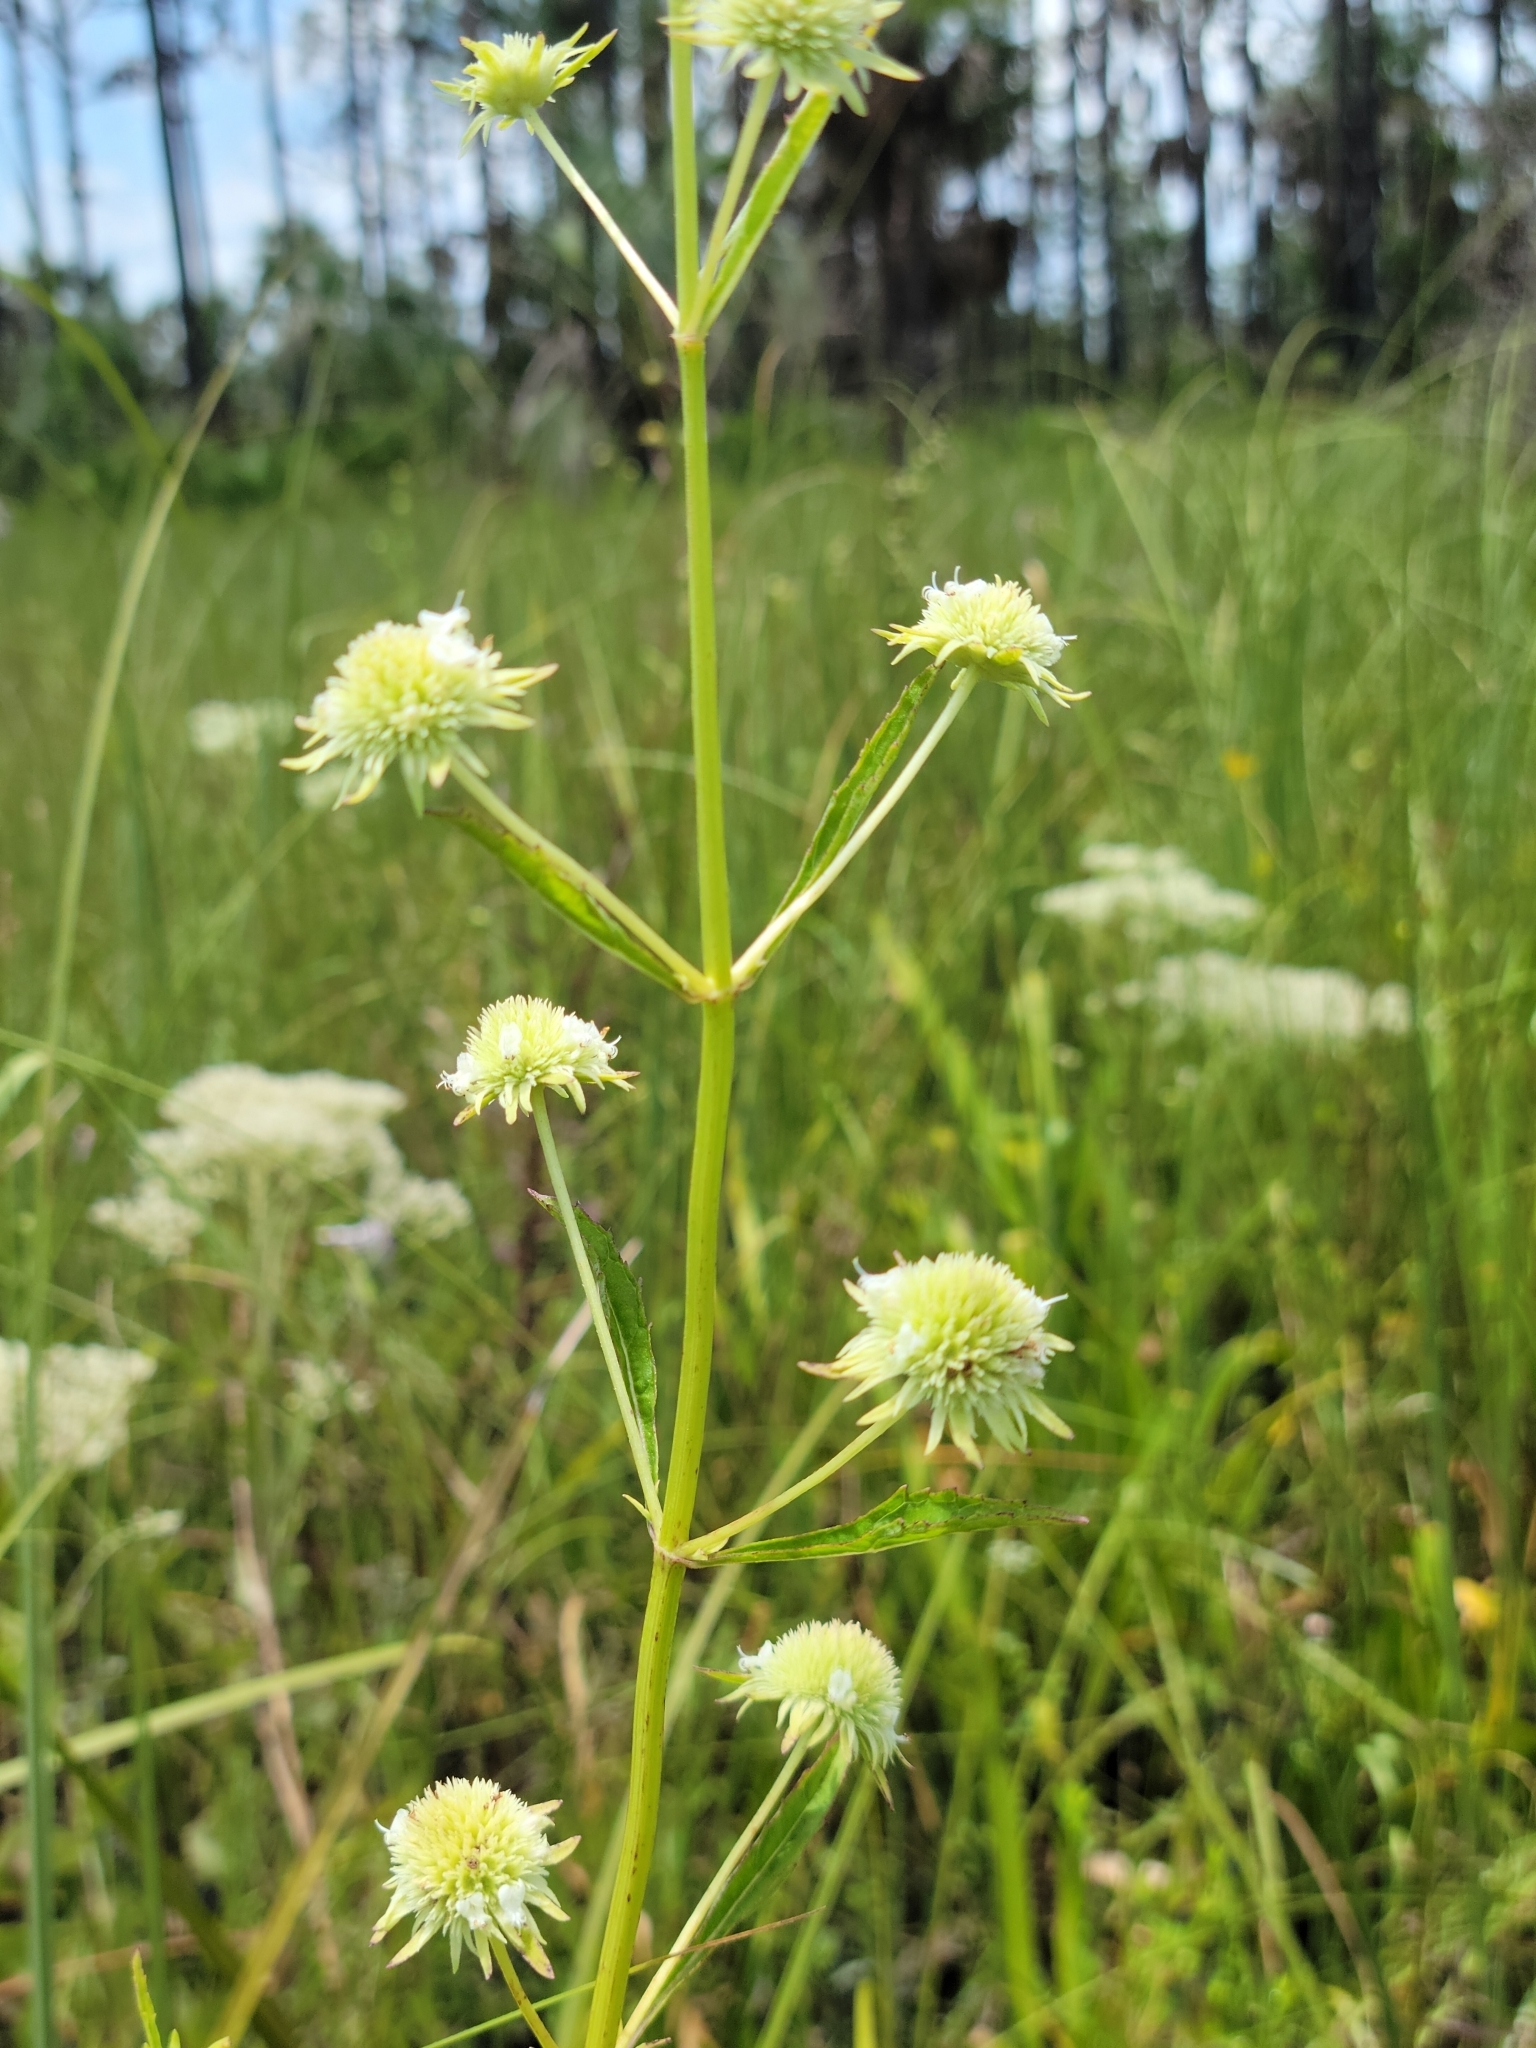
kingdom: Plantae
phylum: Tracheophyta
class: Magnoliopsida
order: Lamiales
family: Lamiaceae
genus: Hyptis
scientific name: Hyptis alata
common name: Cluster bush-mint
